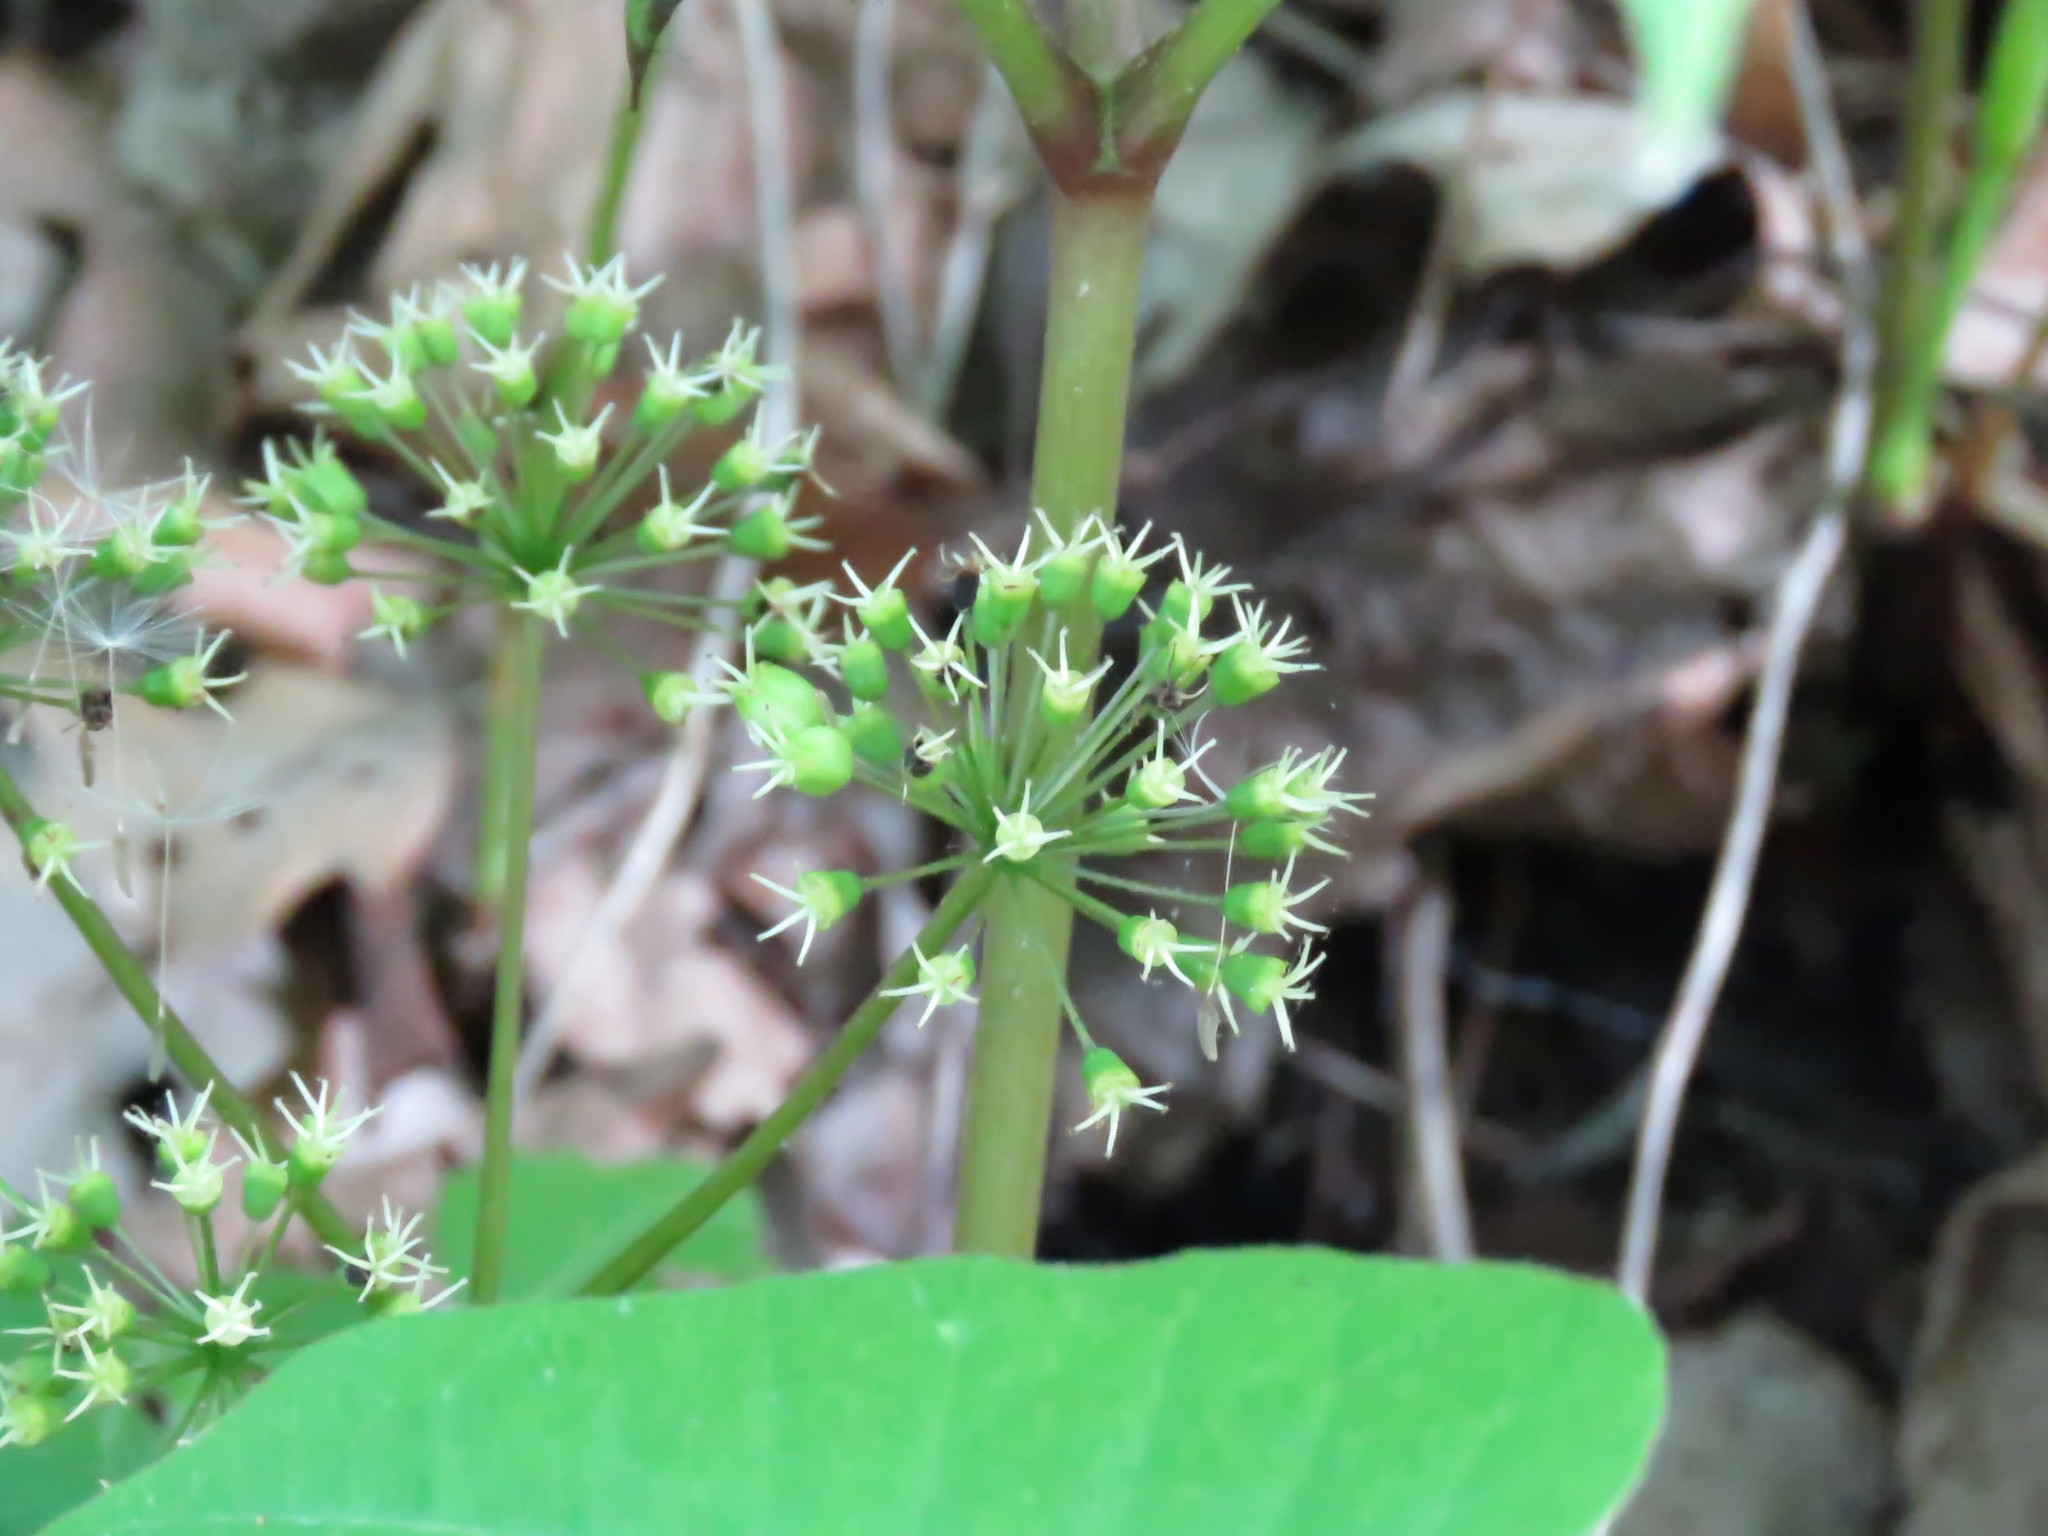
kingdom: Plantae
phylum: Tracheophyta
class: Magnoliopsida
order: Apiales
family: Araliaceae
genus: Aralia
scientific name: Aralia nudicaulis
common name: Wild sarsaparilla
